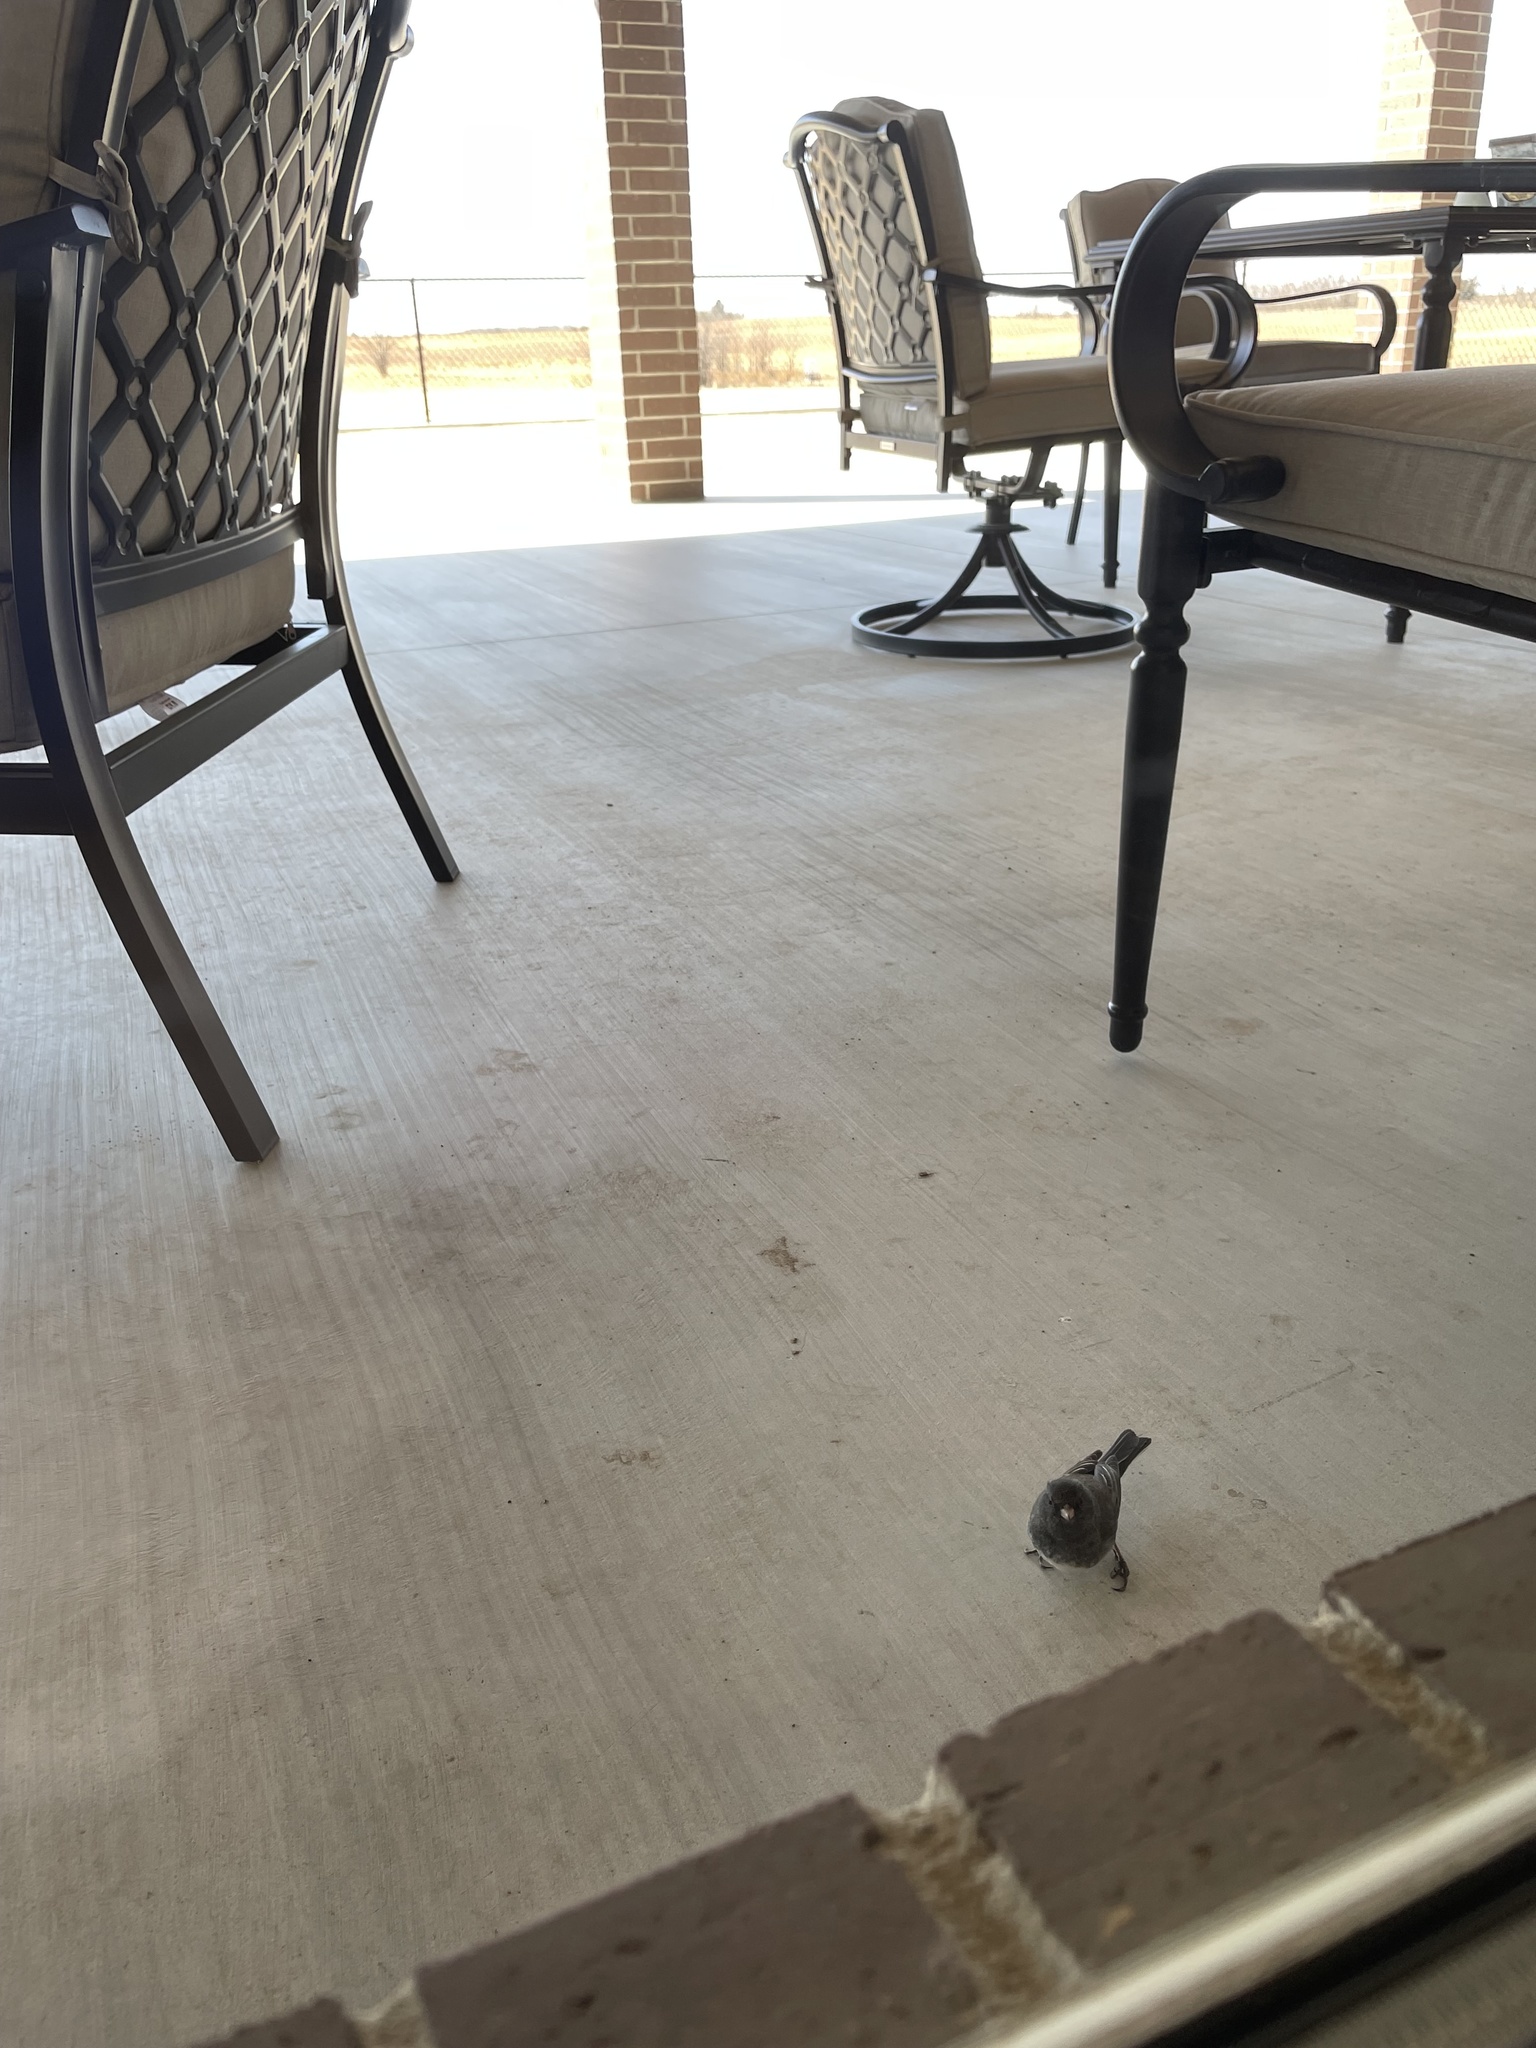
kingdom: Animalia
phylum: Chordata
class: Aves
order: Passeriformes
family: Passerellidae
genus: Junco
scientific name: Junco hyemalis
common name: Dark-eyed junco
